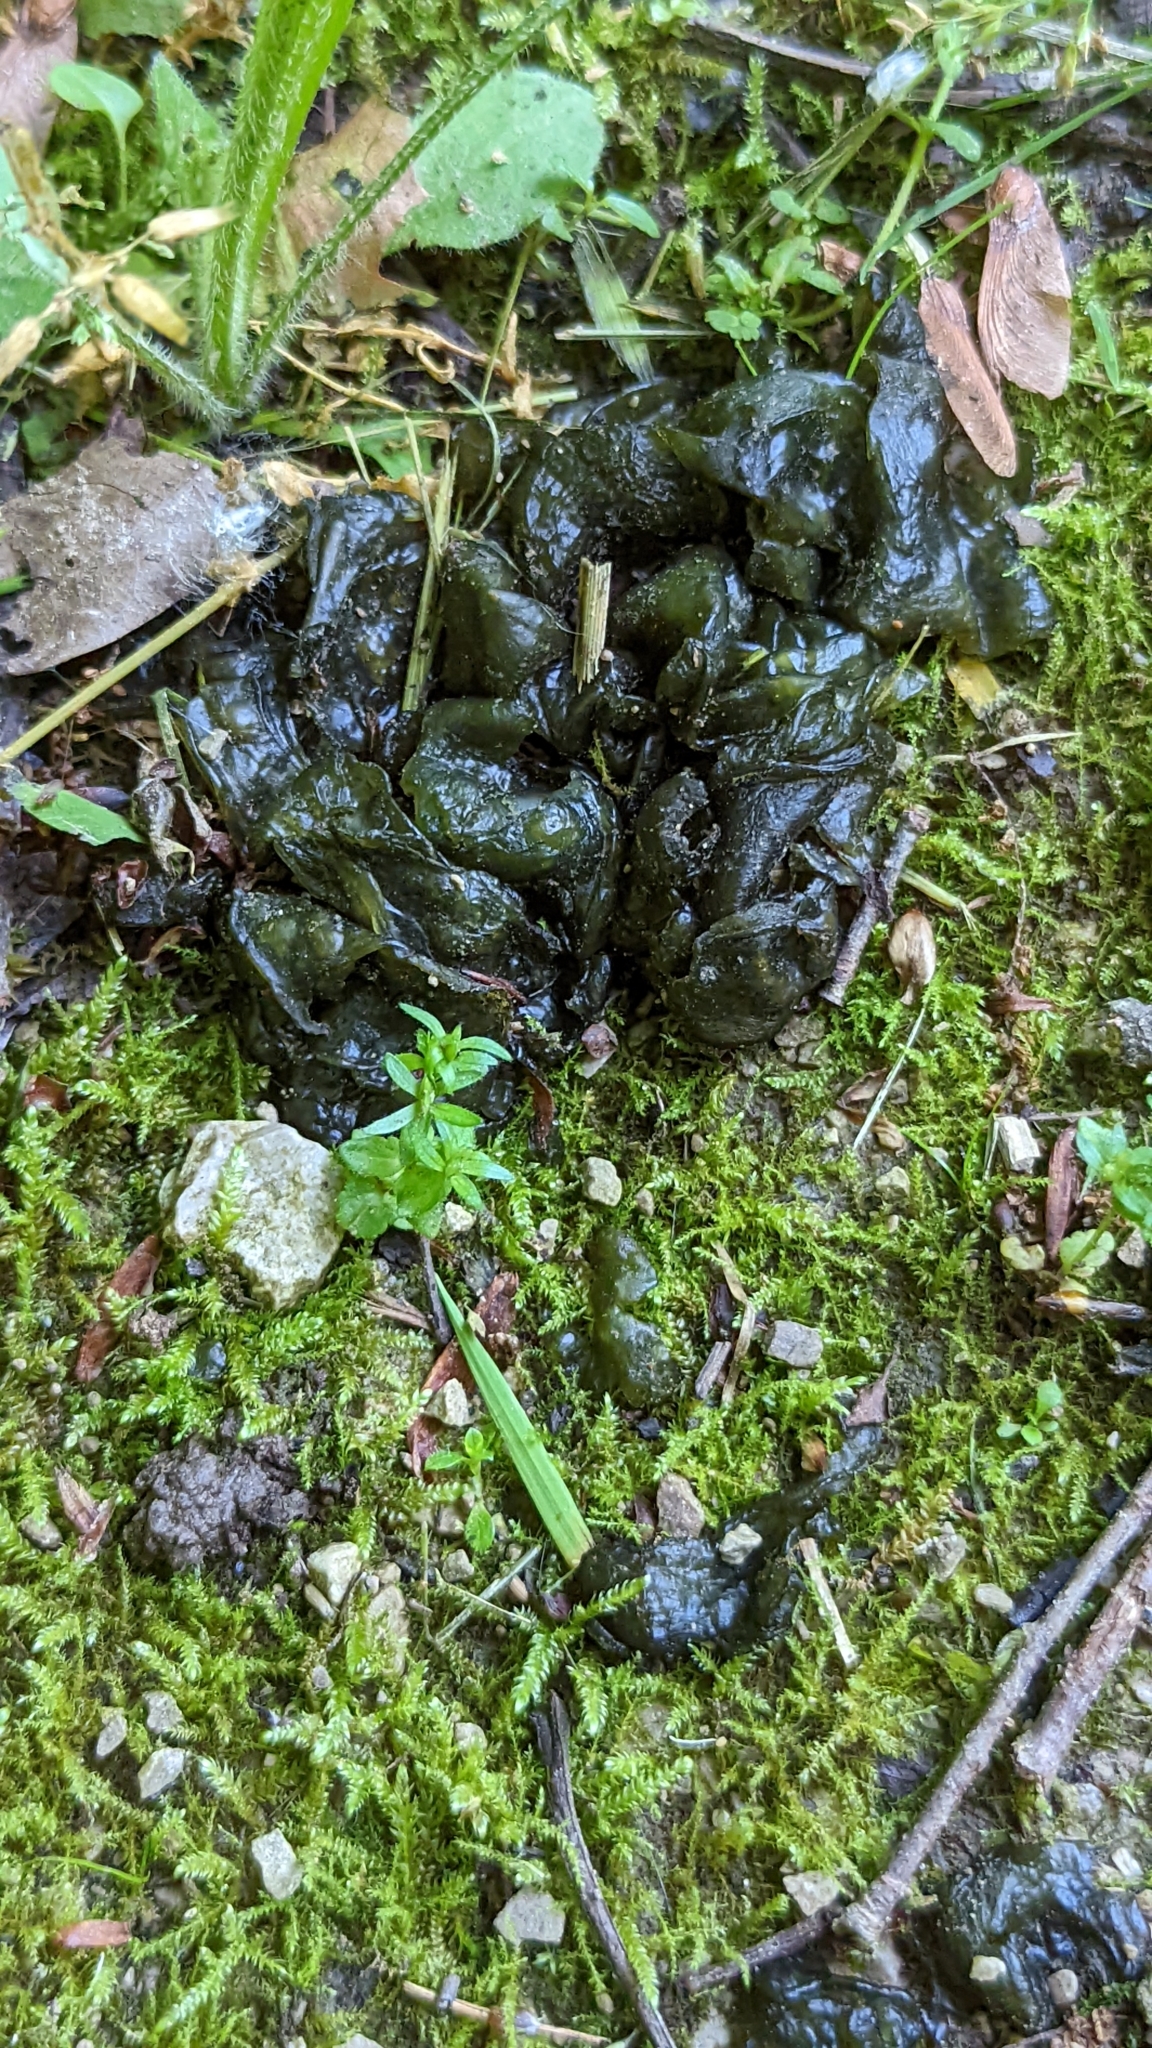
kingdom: Bacteria
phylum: Cyanobacteria
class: Cyanobacteriia
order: Cyanobacteriales
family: Nostocaceae
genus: Nostoc
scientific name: Nostoc commune
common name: Star jelly
